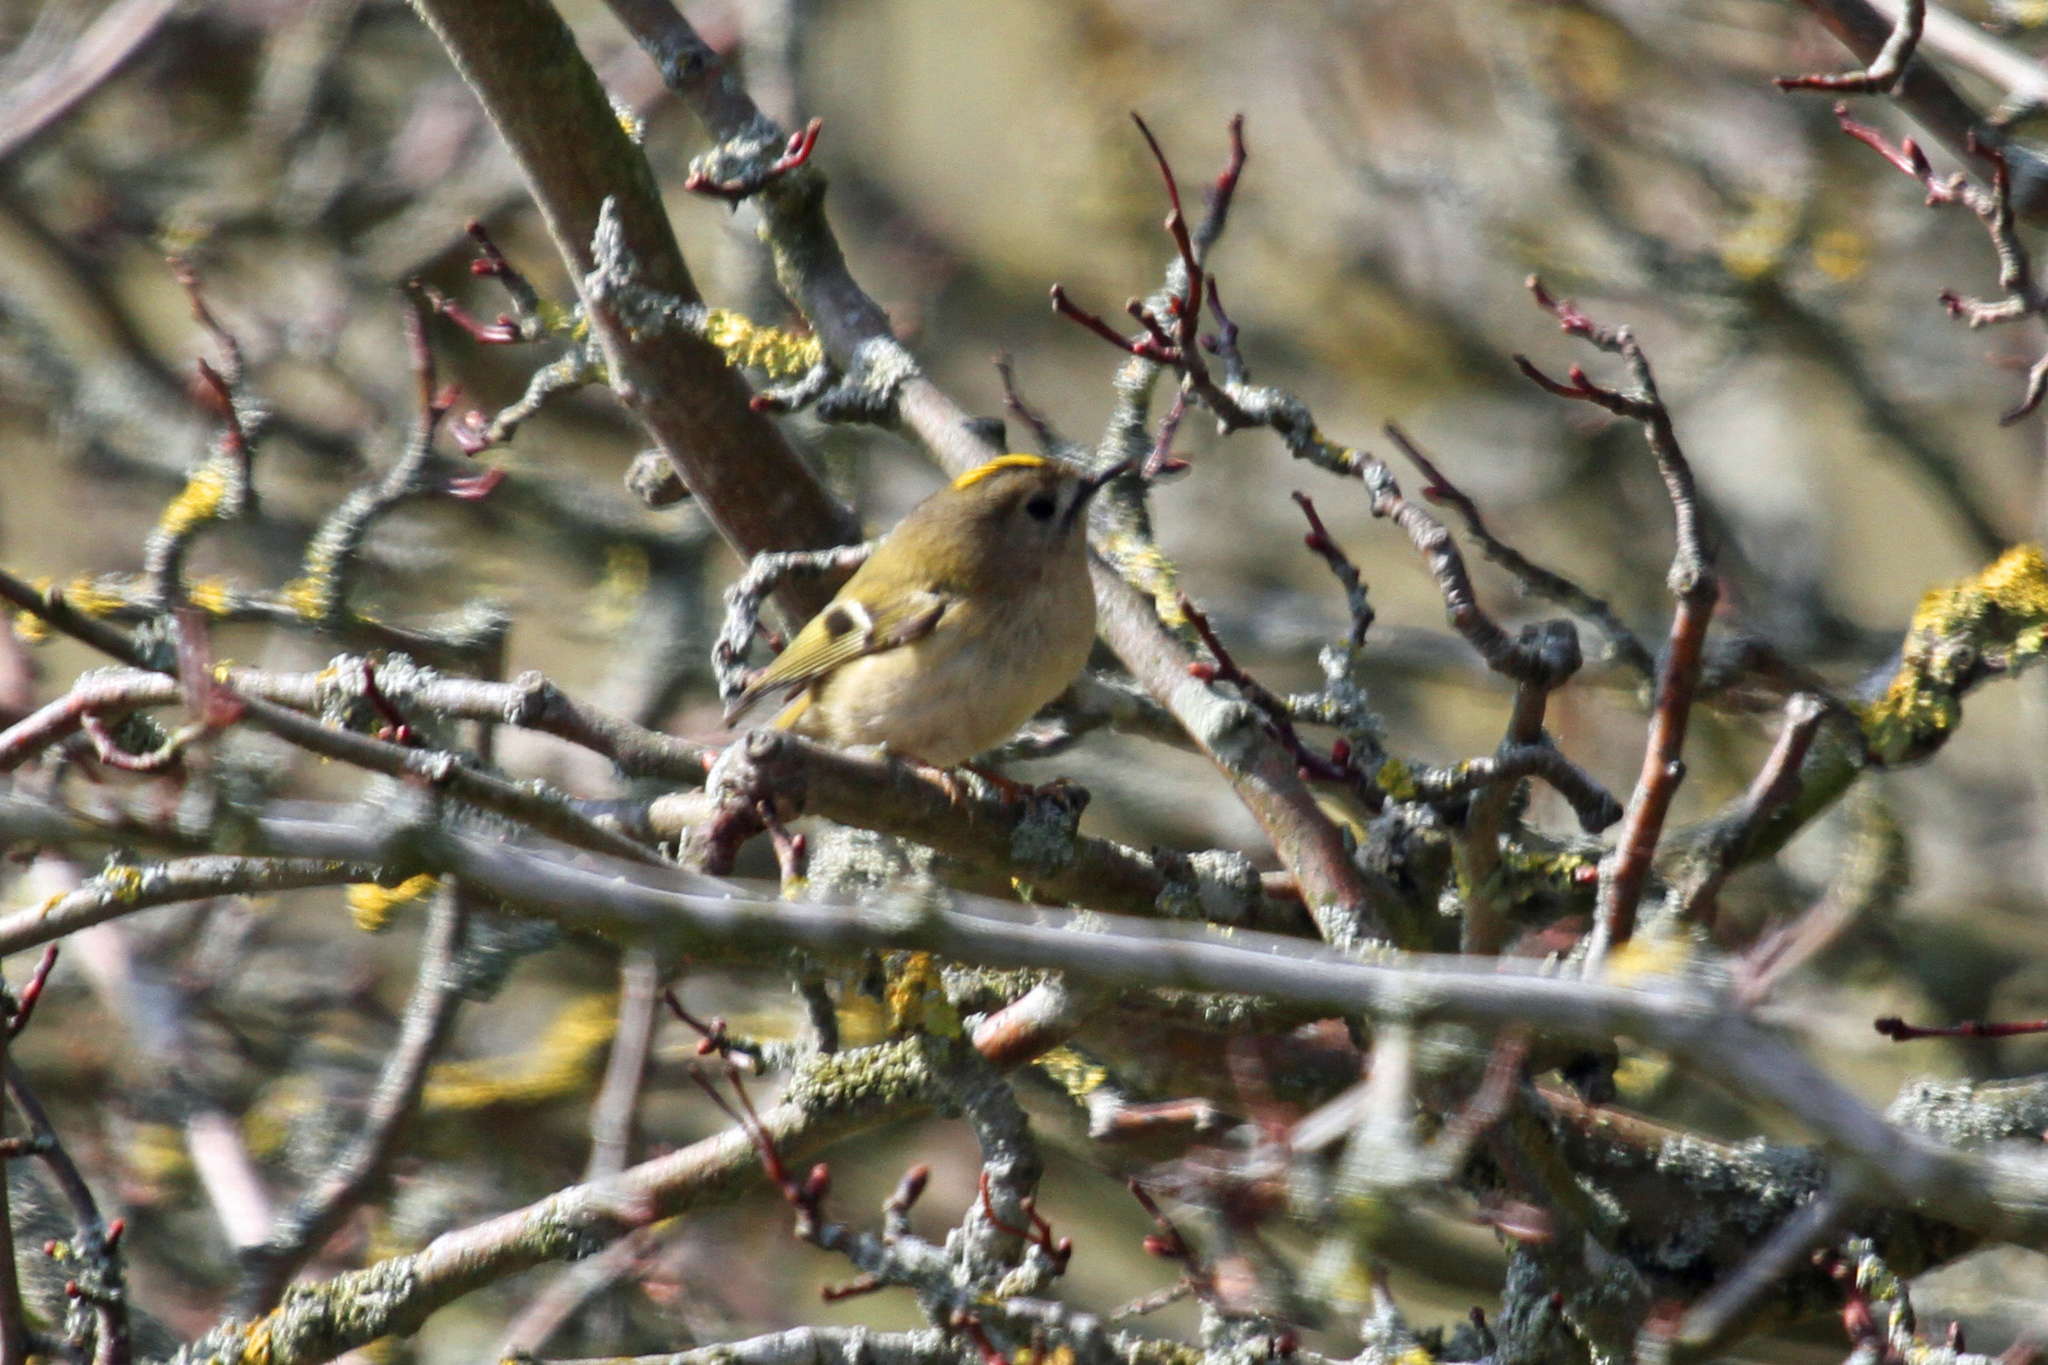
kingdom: Animalia
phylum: Chordata
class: Aves
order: Passeriformes
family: Regulidae
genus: Regulus
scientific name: Regulus regulus
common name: Goldcrest
